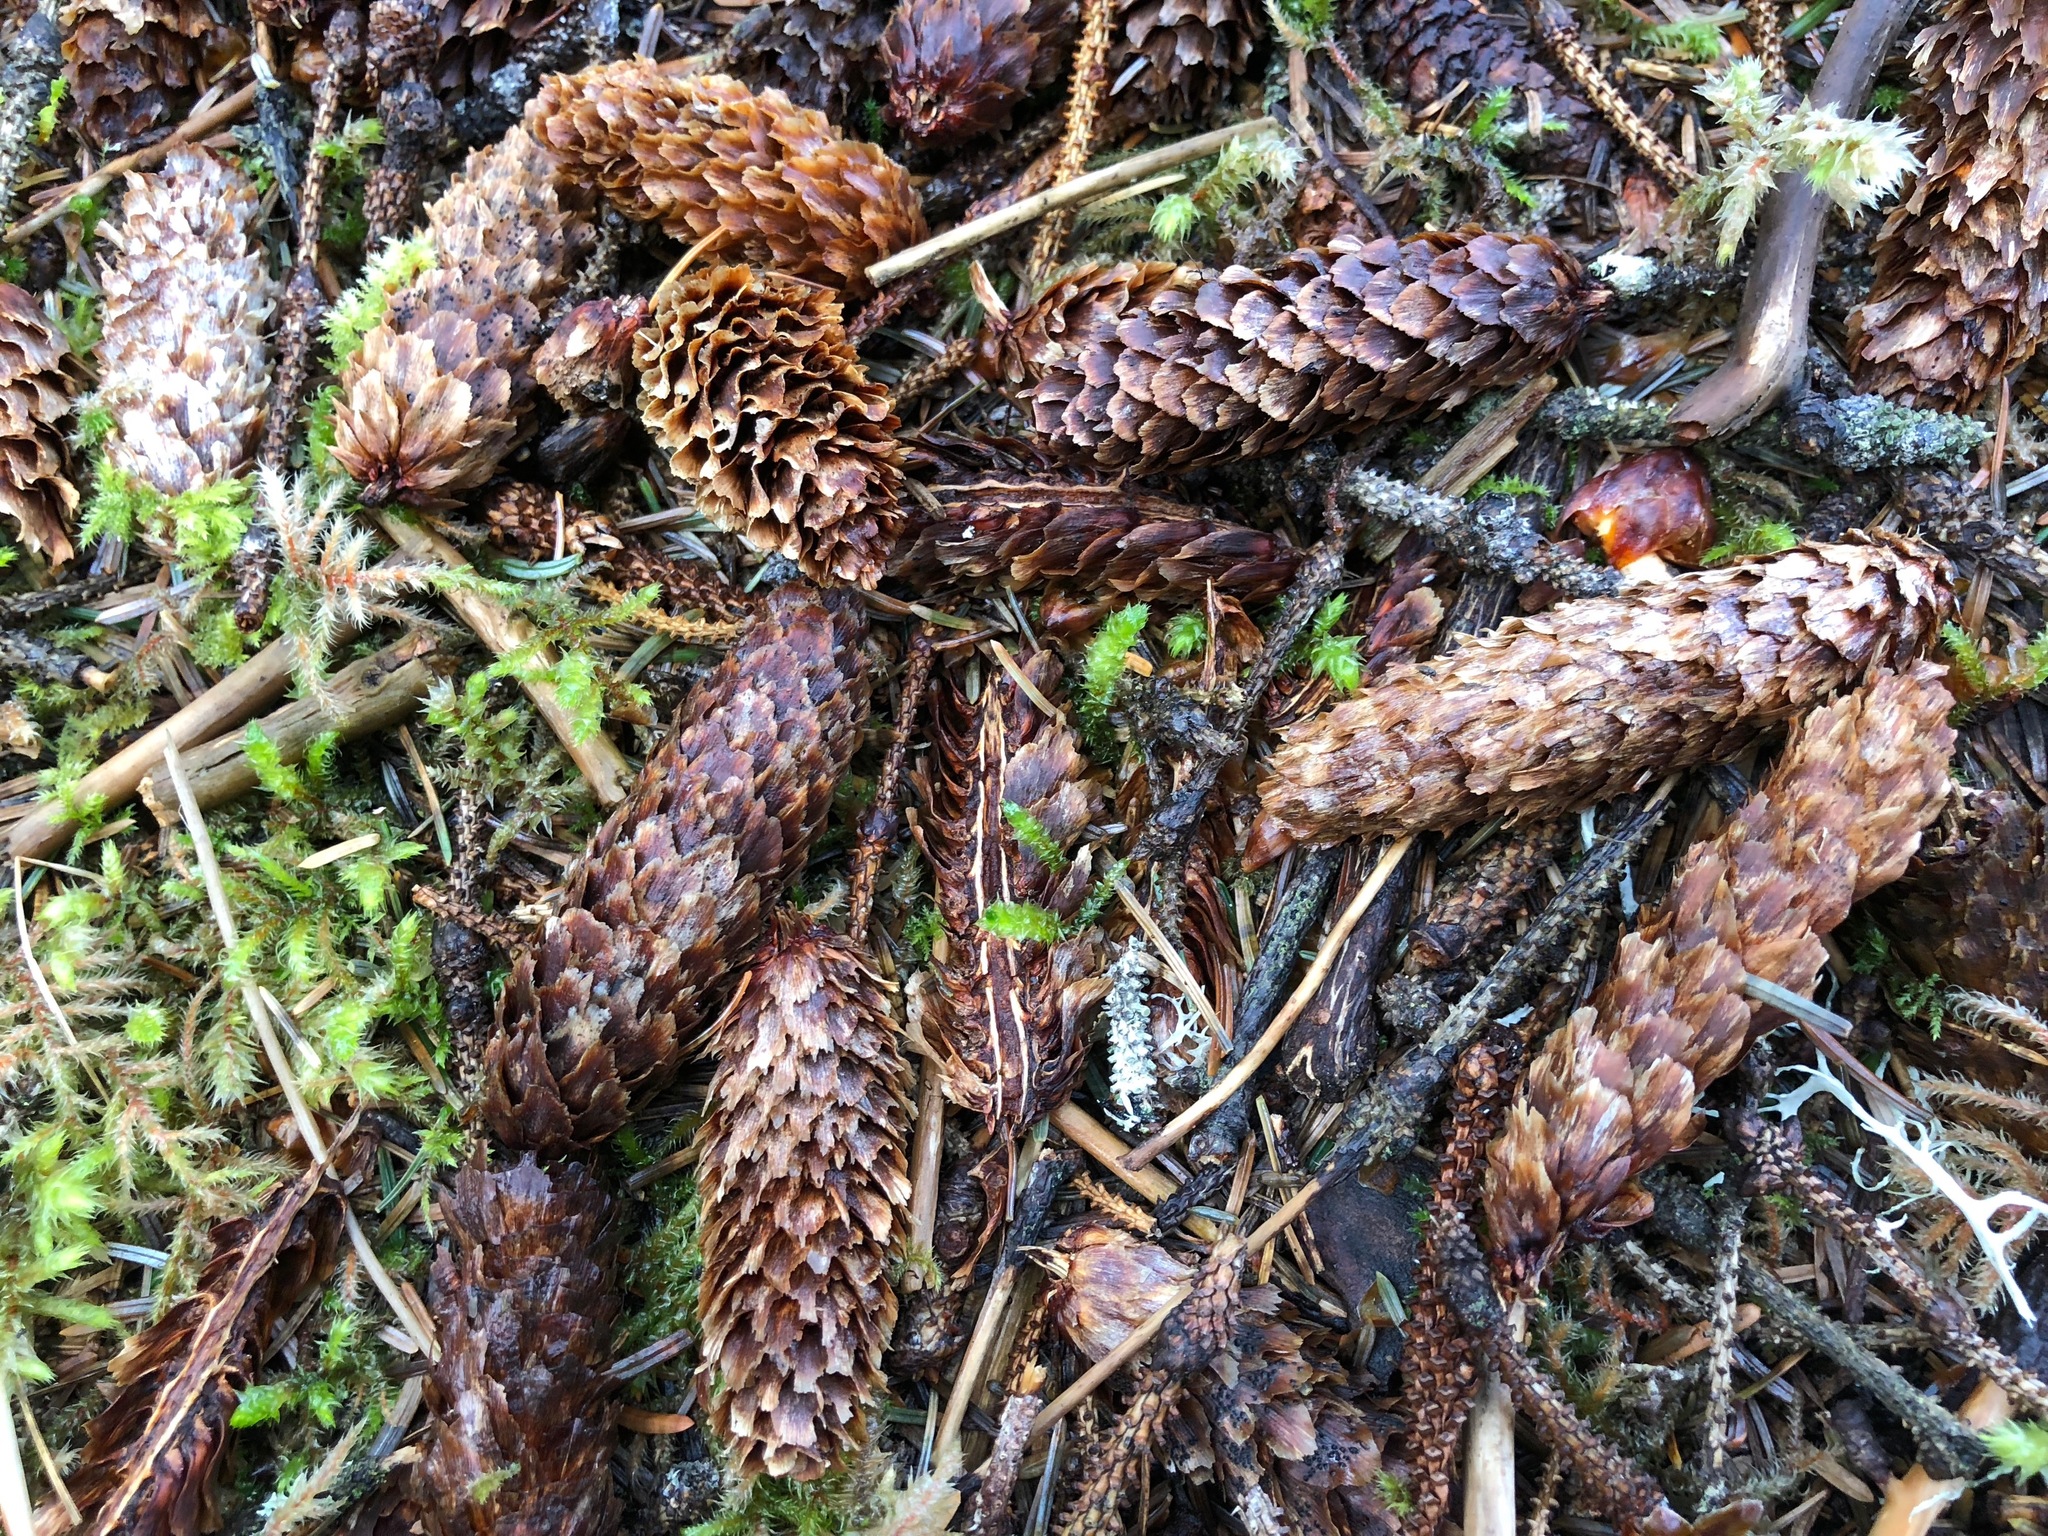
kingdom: Plantae
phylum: Tracheophyta
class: Pinopsida
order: Pinales
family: Pinaceae
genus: Picea
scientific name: Picea sitchensis
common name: Sitka spruce
